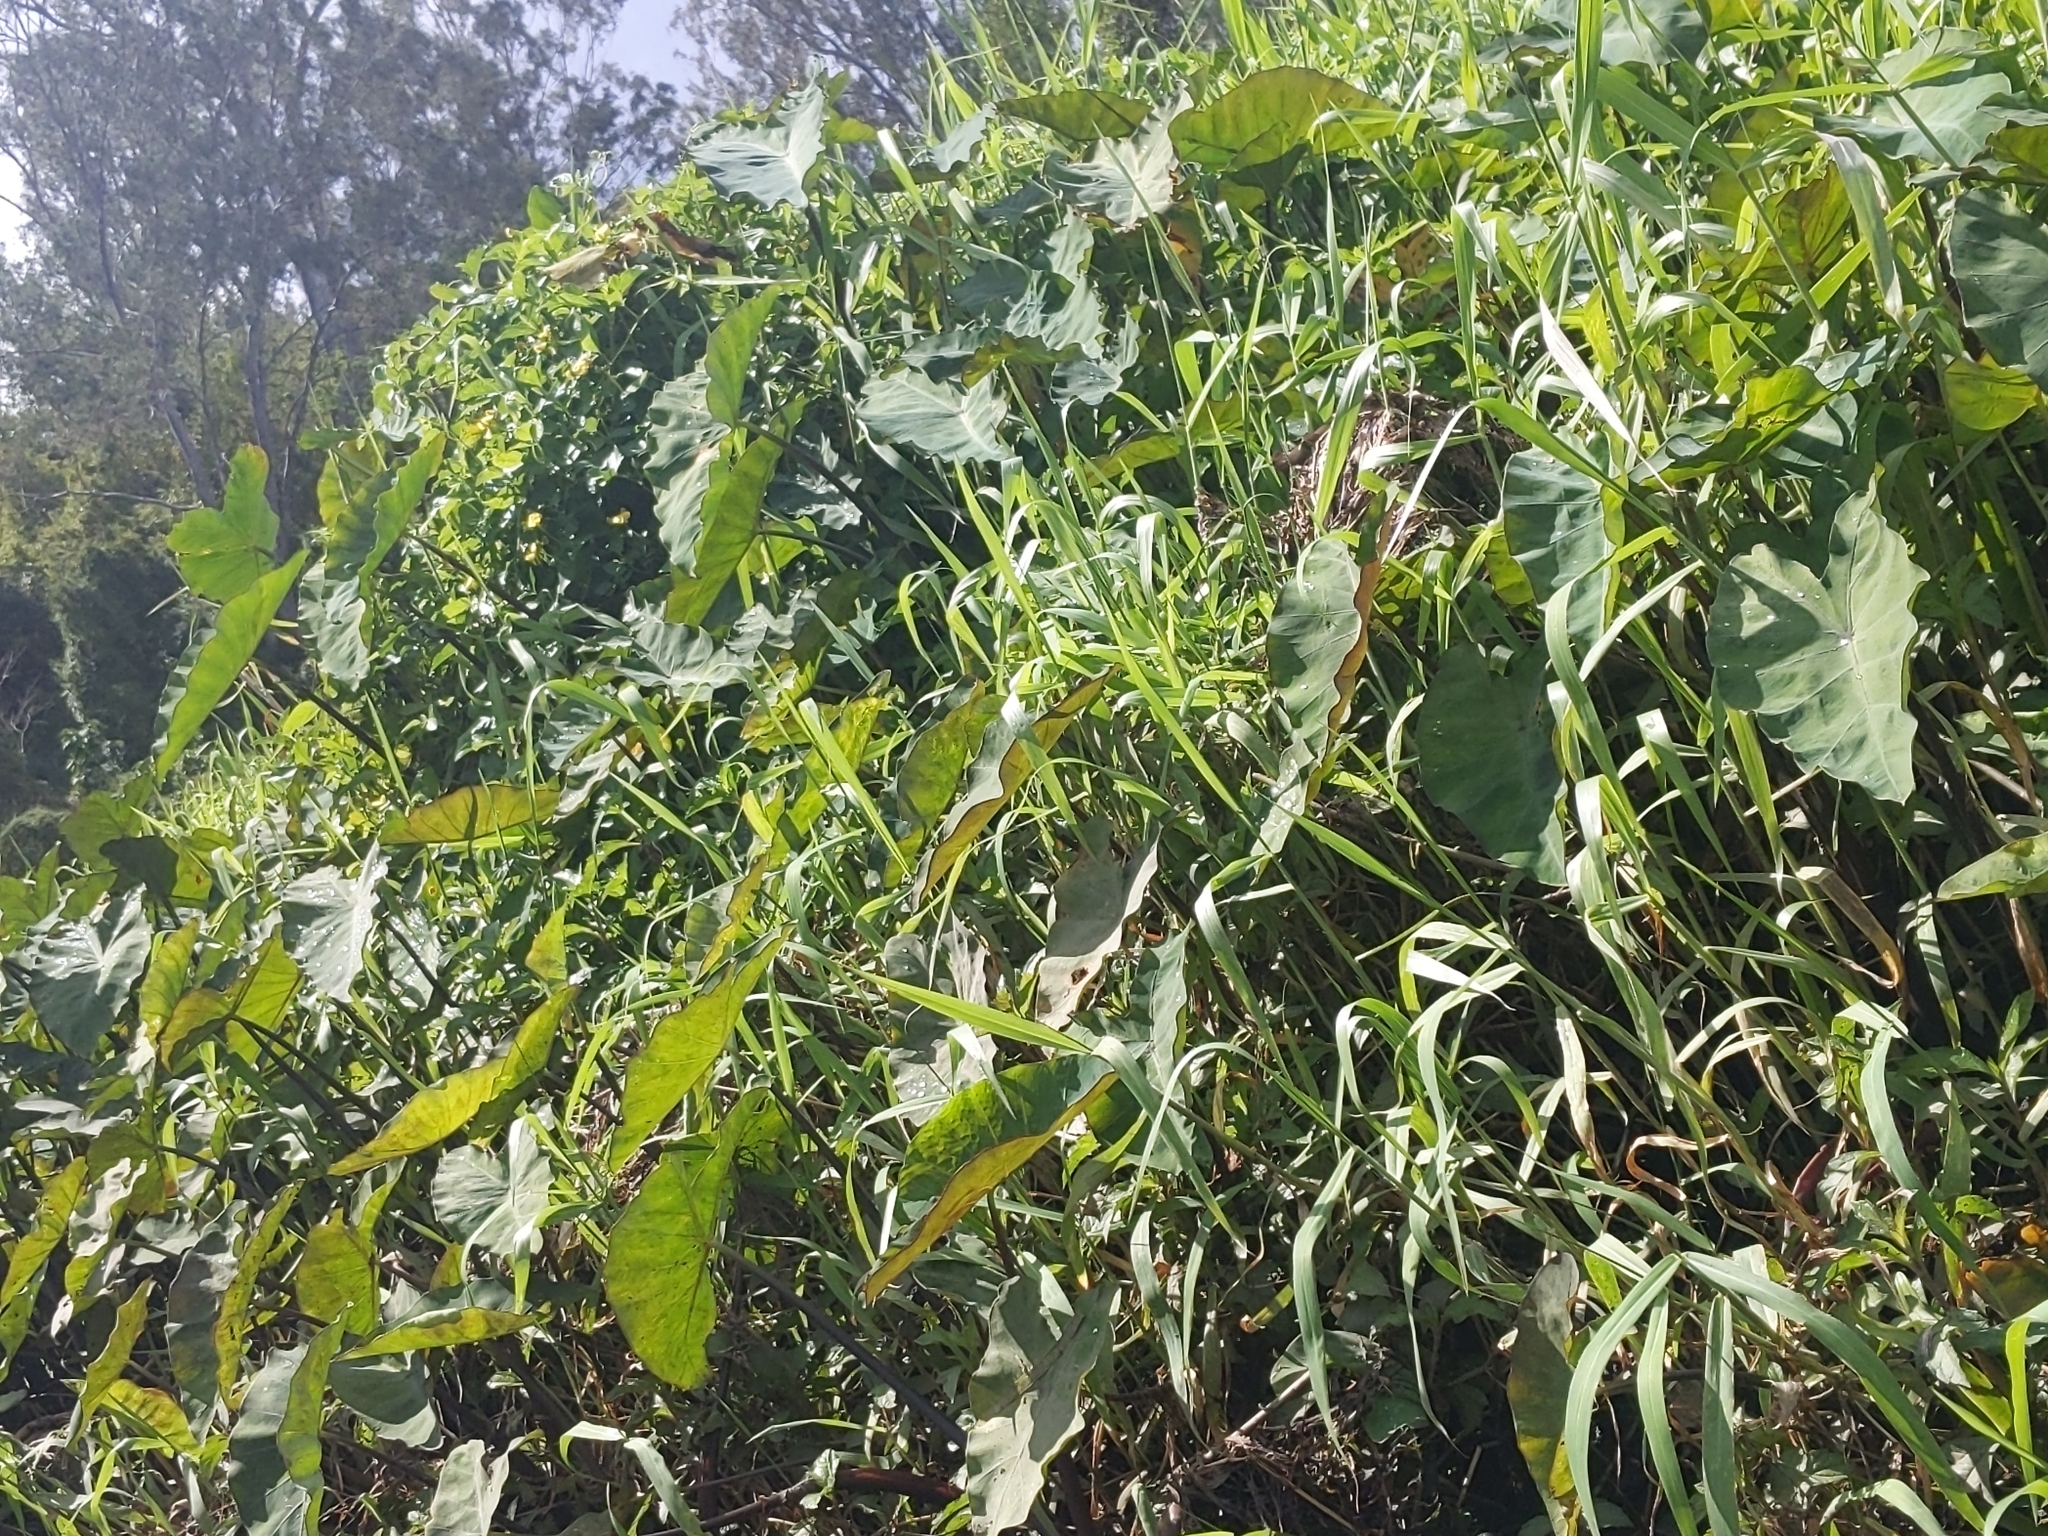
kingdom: Plantae
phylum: Tracheophyta
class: Liliopsida
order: Alismatales
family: Araceae
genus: Colocasia
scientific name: Colocasia esculenta
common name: Taro
